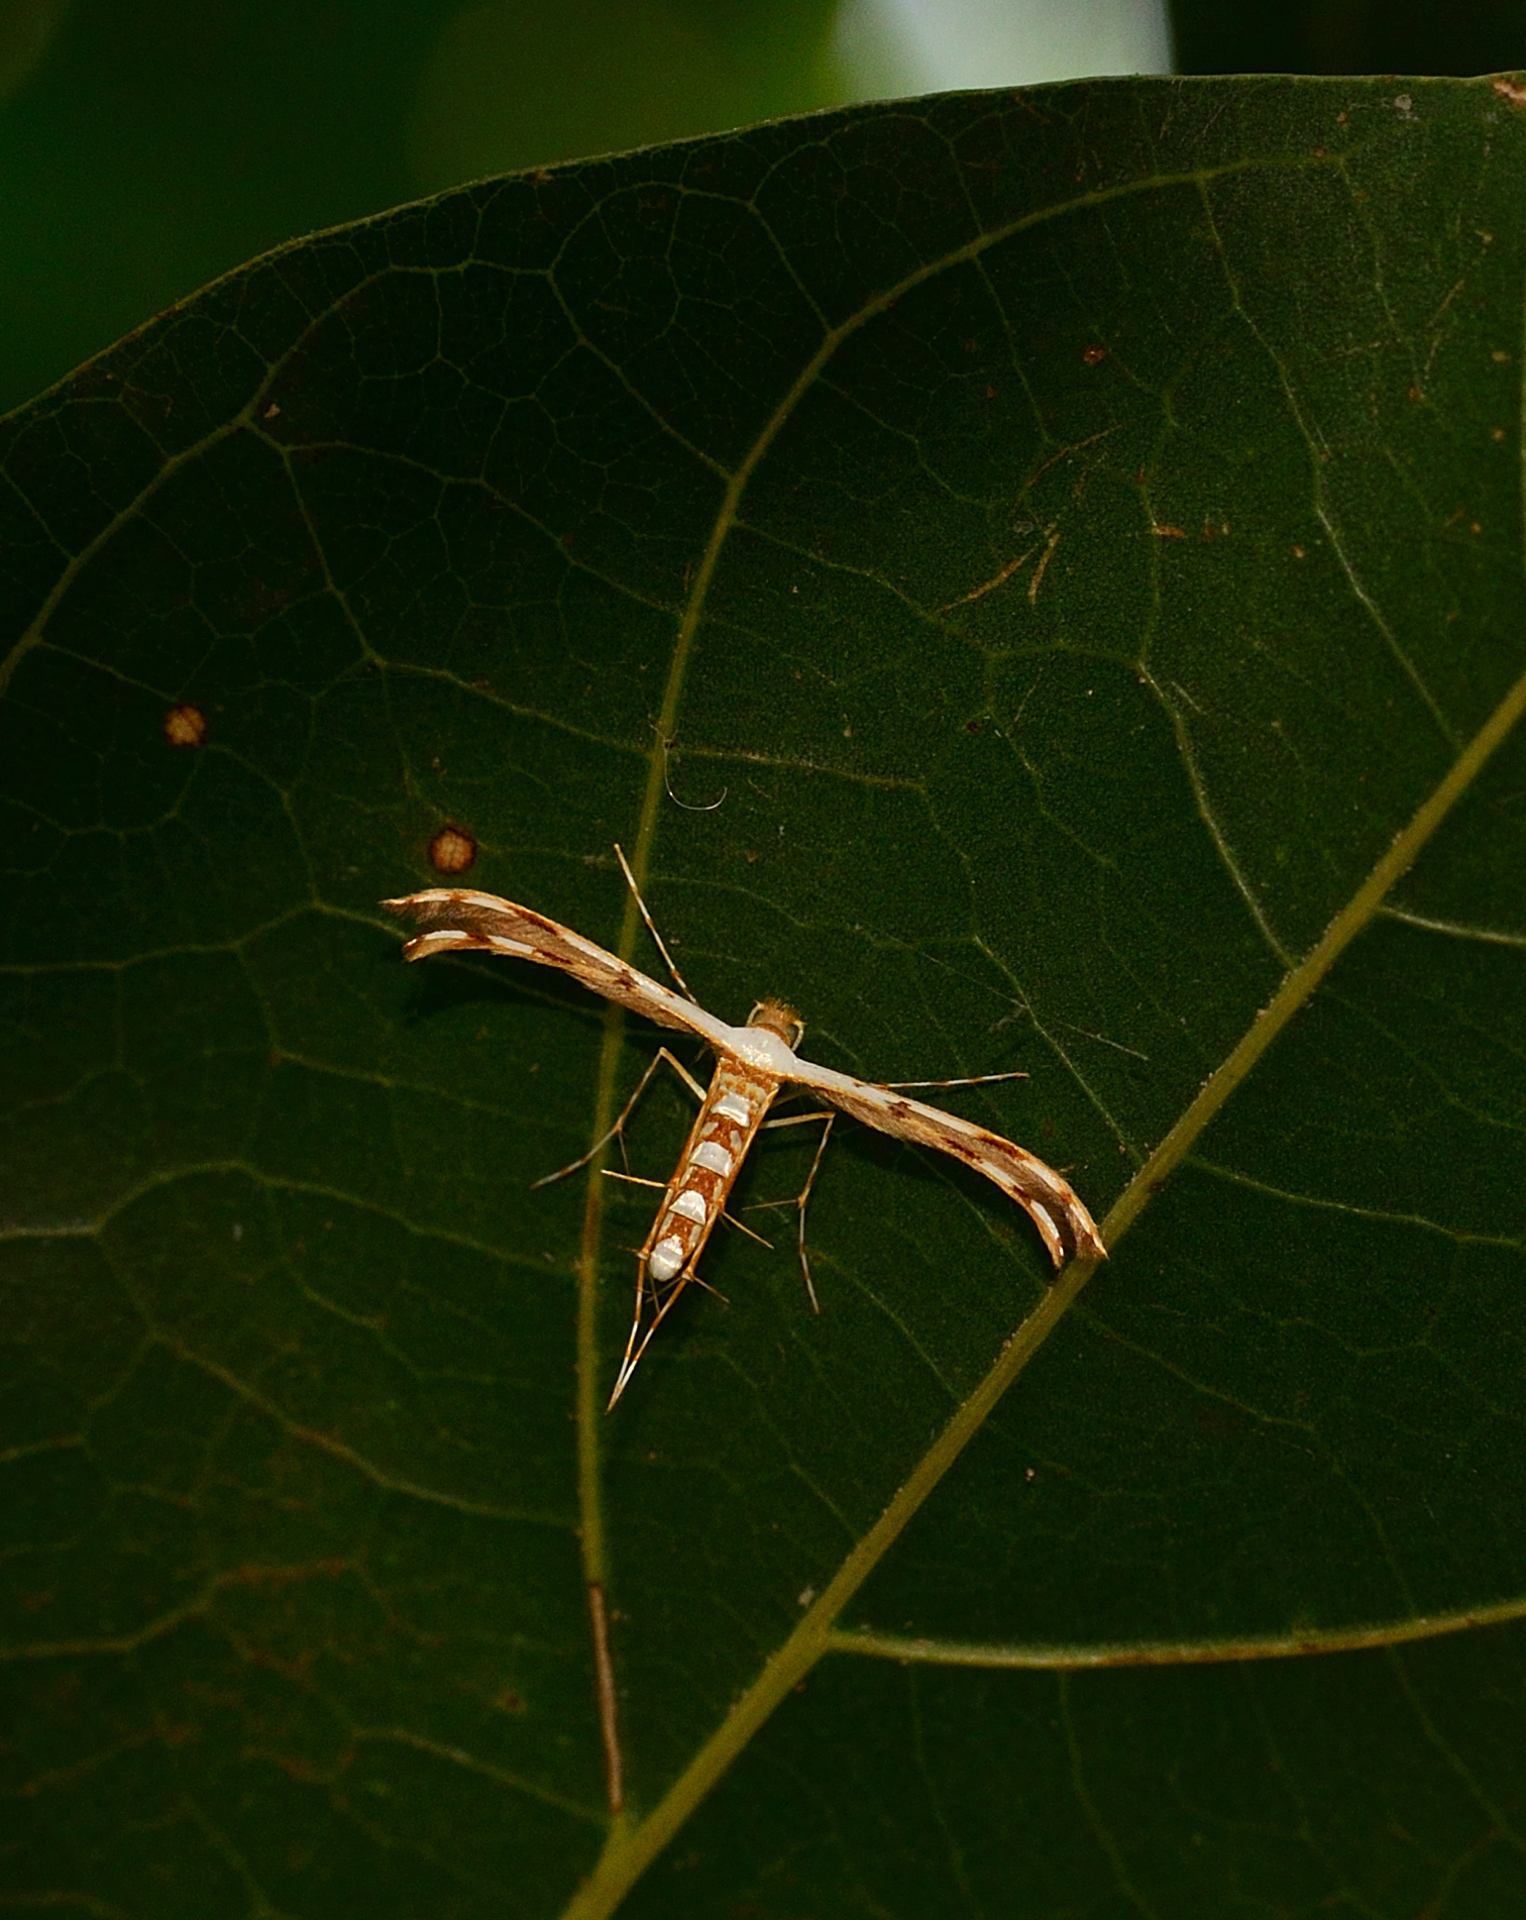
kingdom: Animalia
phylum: Arthropoda
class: Insecta
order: Lepidoptera
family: Pterophoridae
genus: Cosmoclostis
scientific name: Cosmoclostis pesseuta
